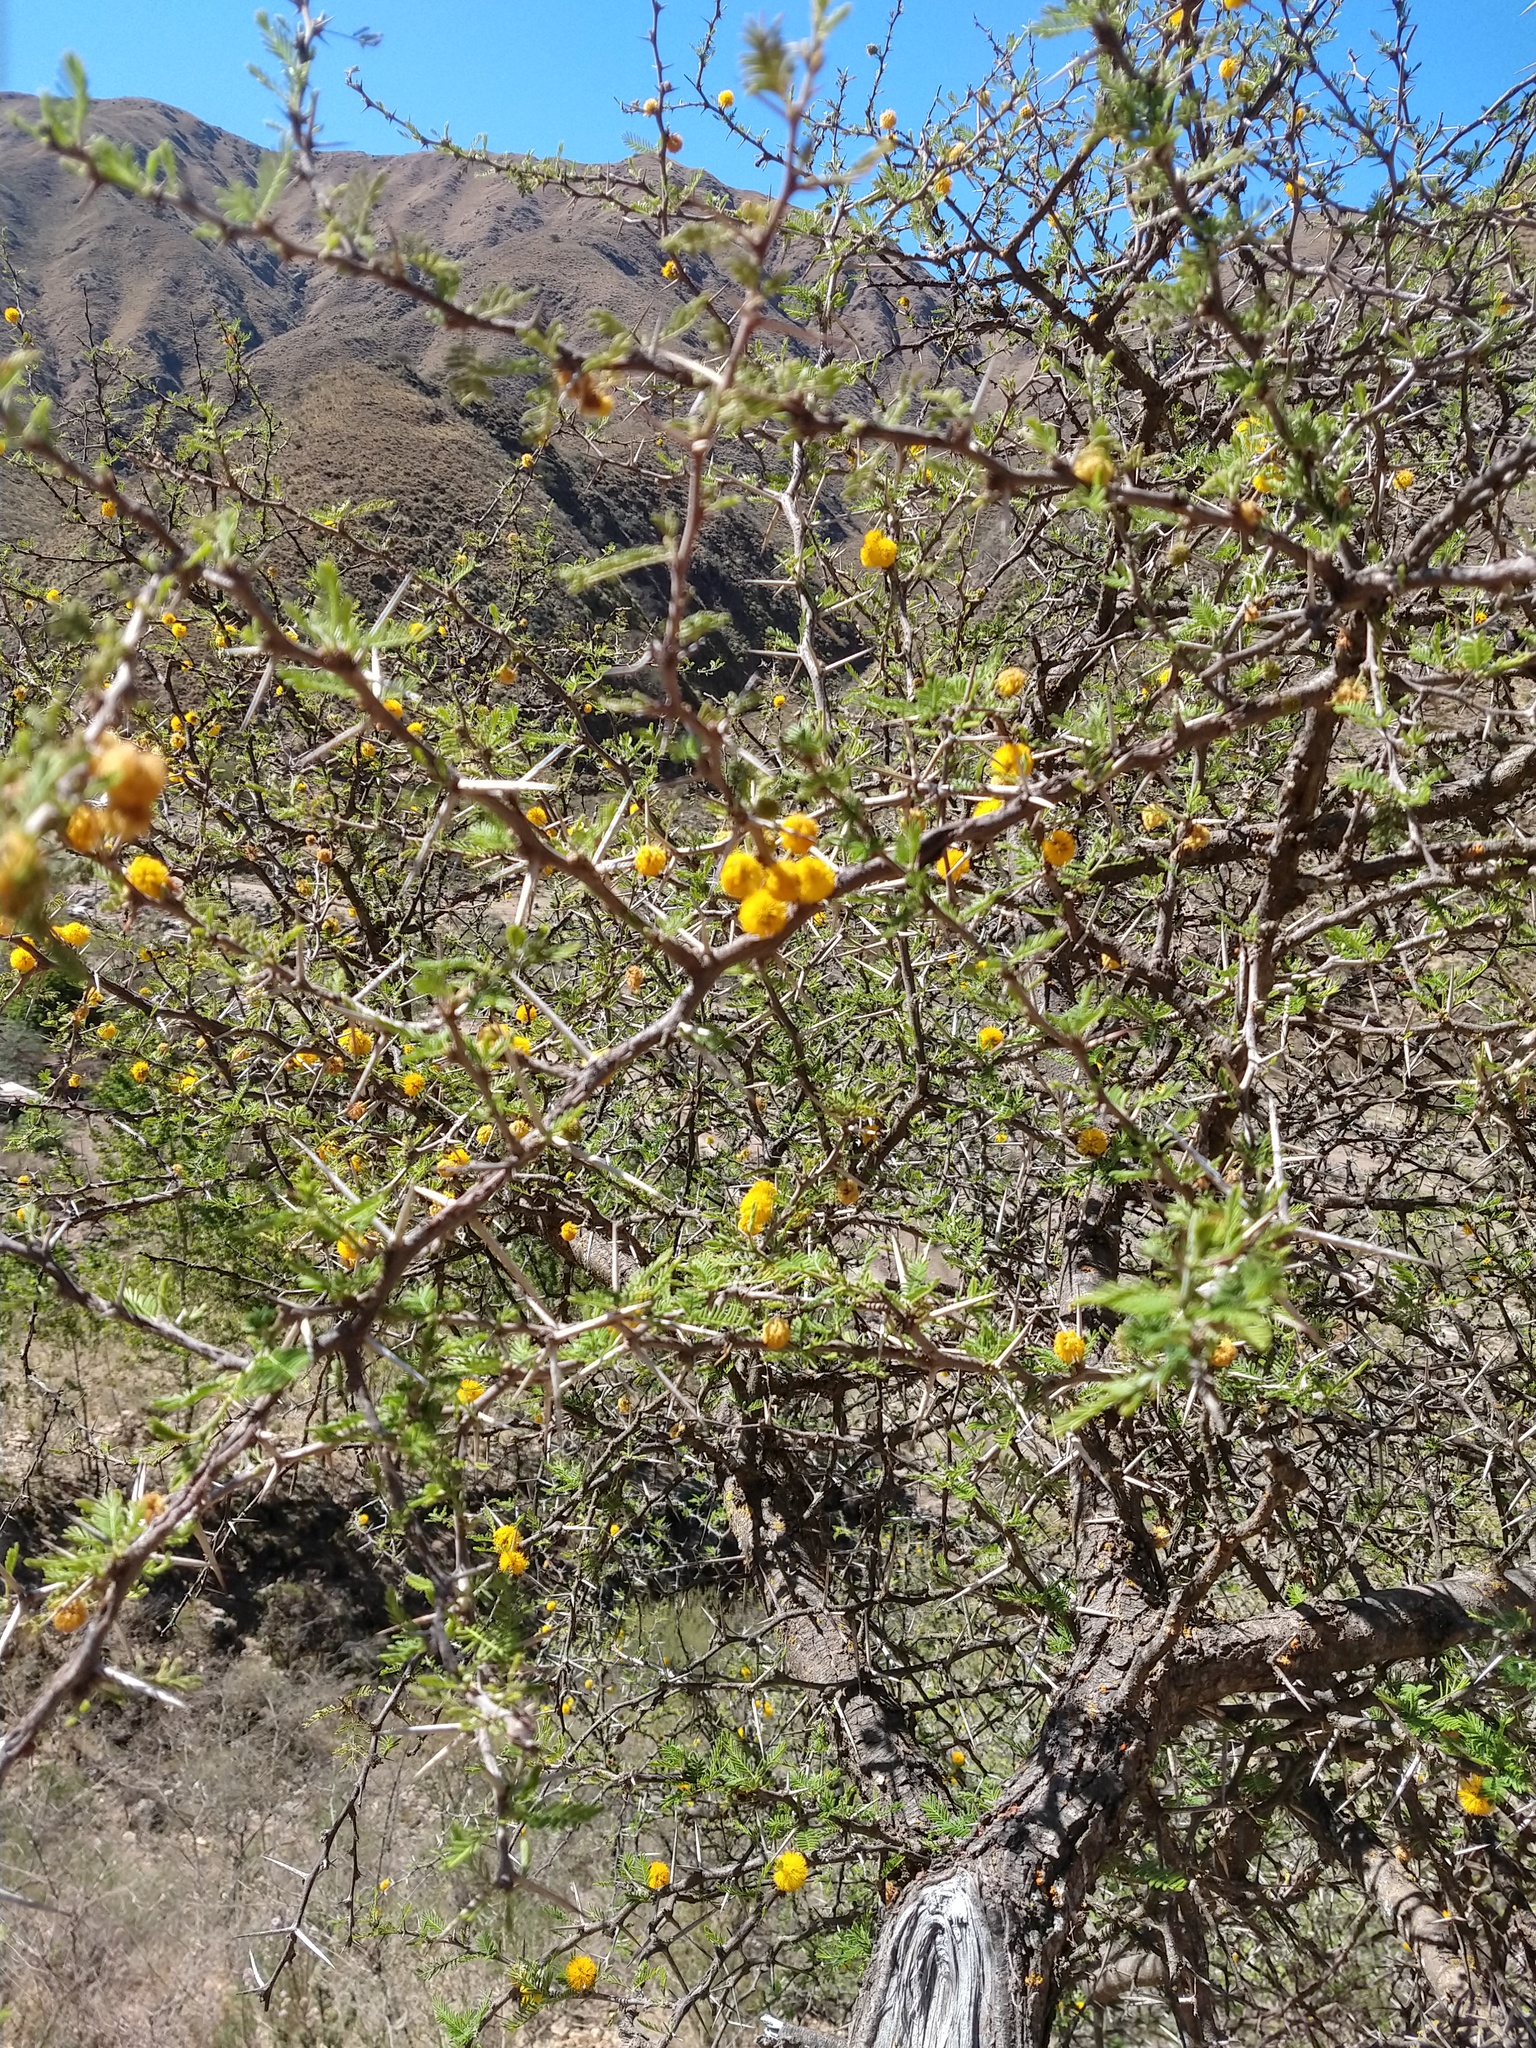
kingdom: Plantae
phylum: Tracheophyta
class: Magnoliopsida
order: Fabales
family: Fabaceae
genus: Vachellia
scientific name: Vachellia caven
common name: Roman cassie
